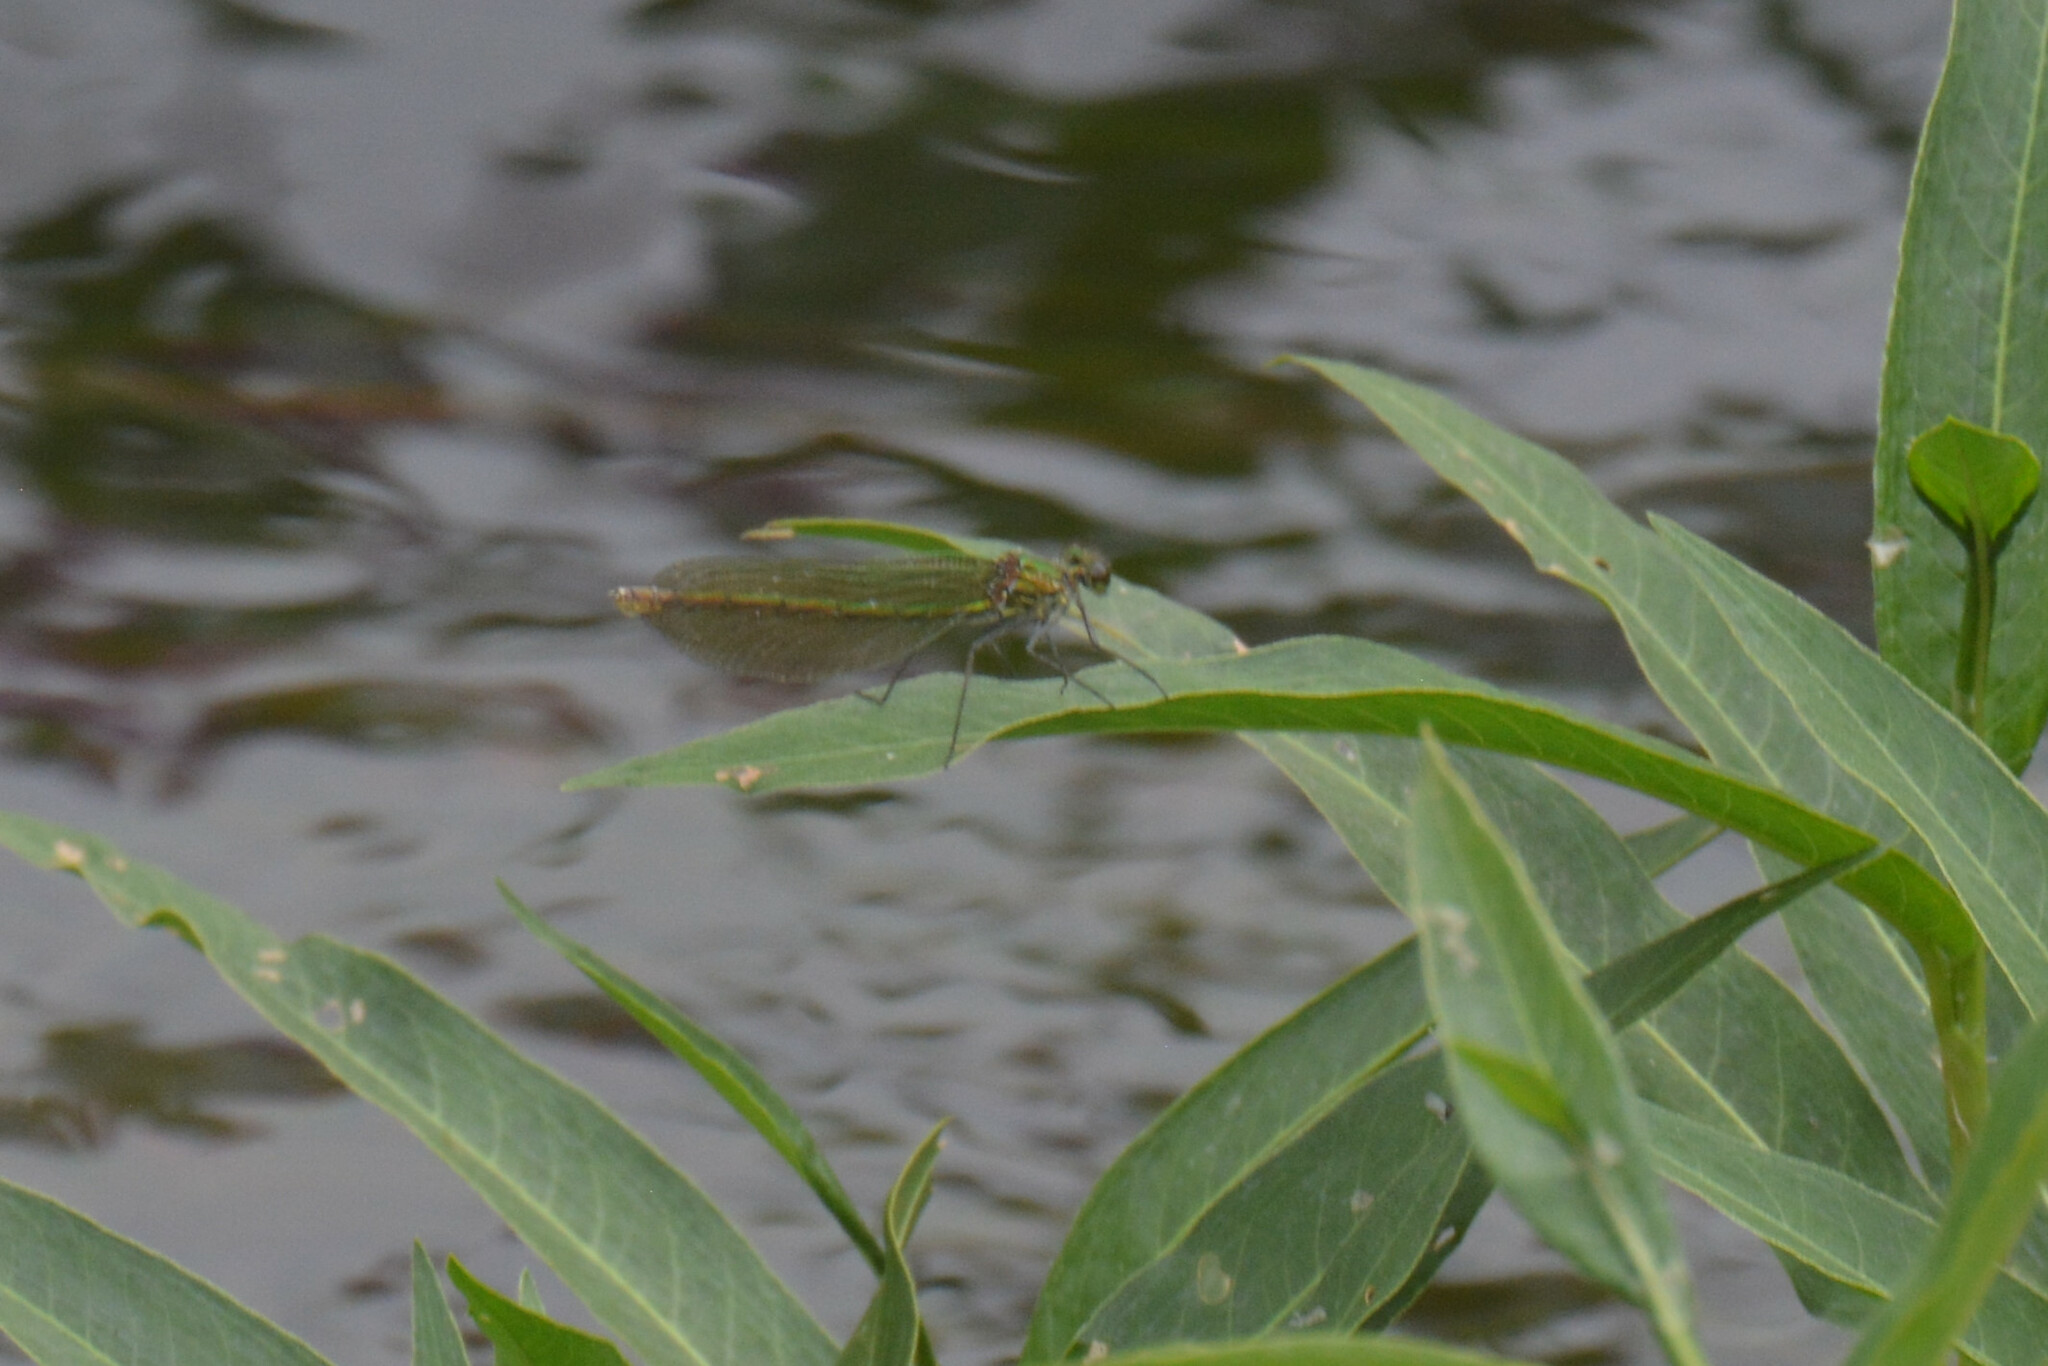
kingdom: Animalia
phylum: Arthropoda
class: Insecta
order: Odonata
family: Calopterygidae
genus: Calopteryx
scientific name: Calopteryx splendens
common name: Banded demoiselle
